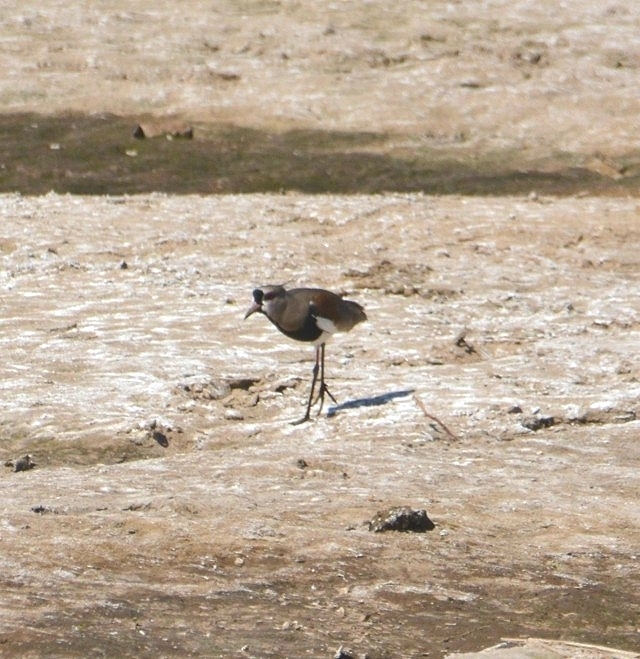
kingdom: Animalia
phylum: Chordata
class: Aves
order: Charadriiformes
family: Charadriidae
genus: Vanellus
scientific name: Vanellus chilensis
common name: Southern lapwing
